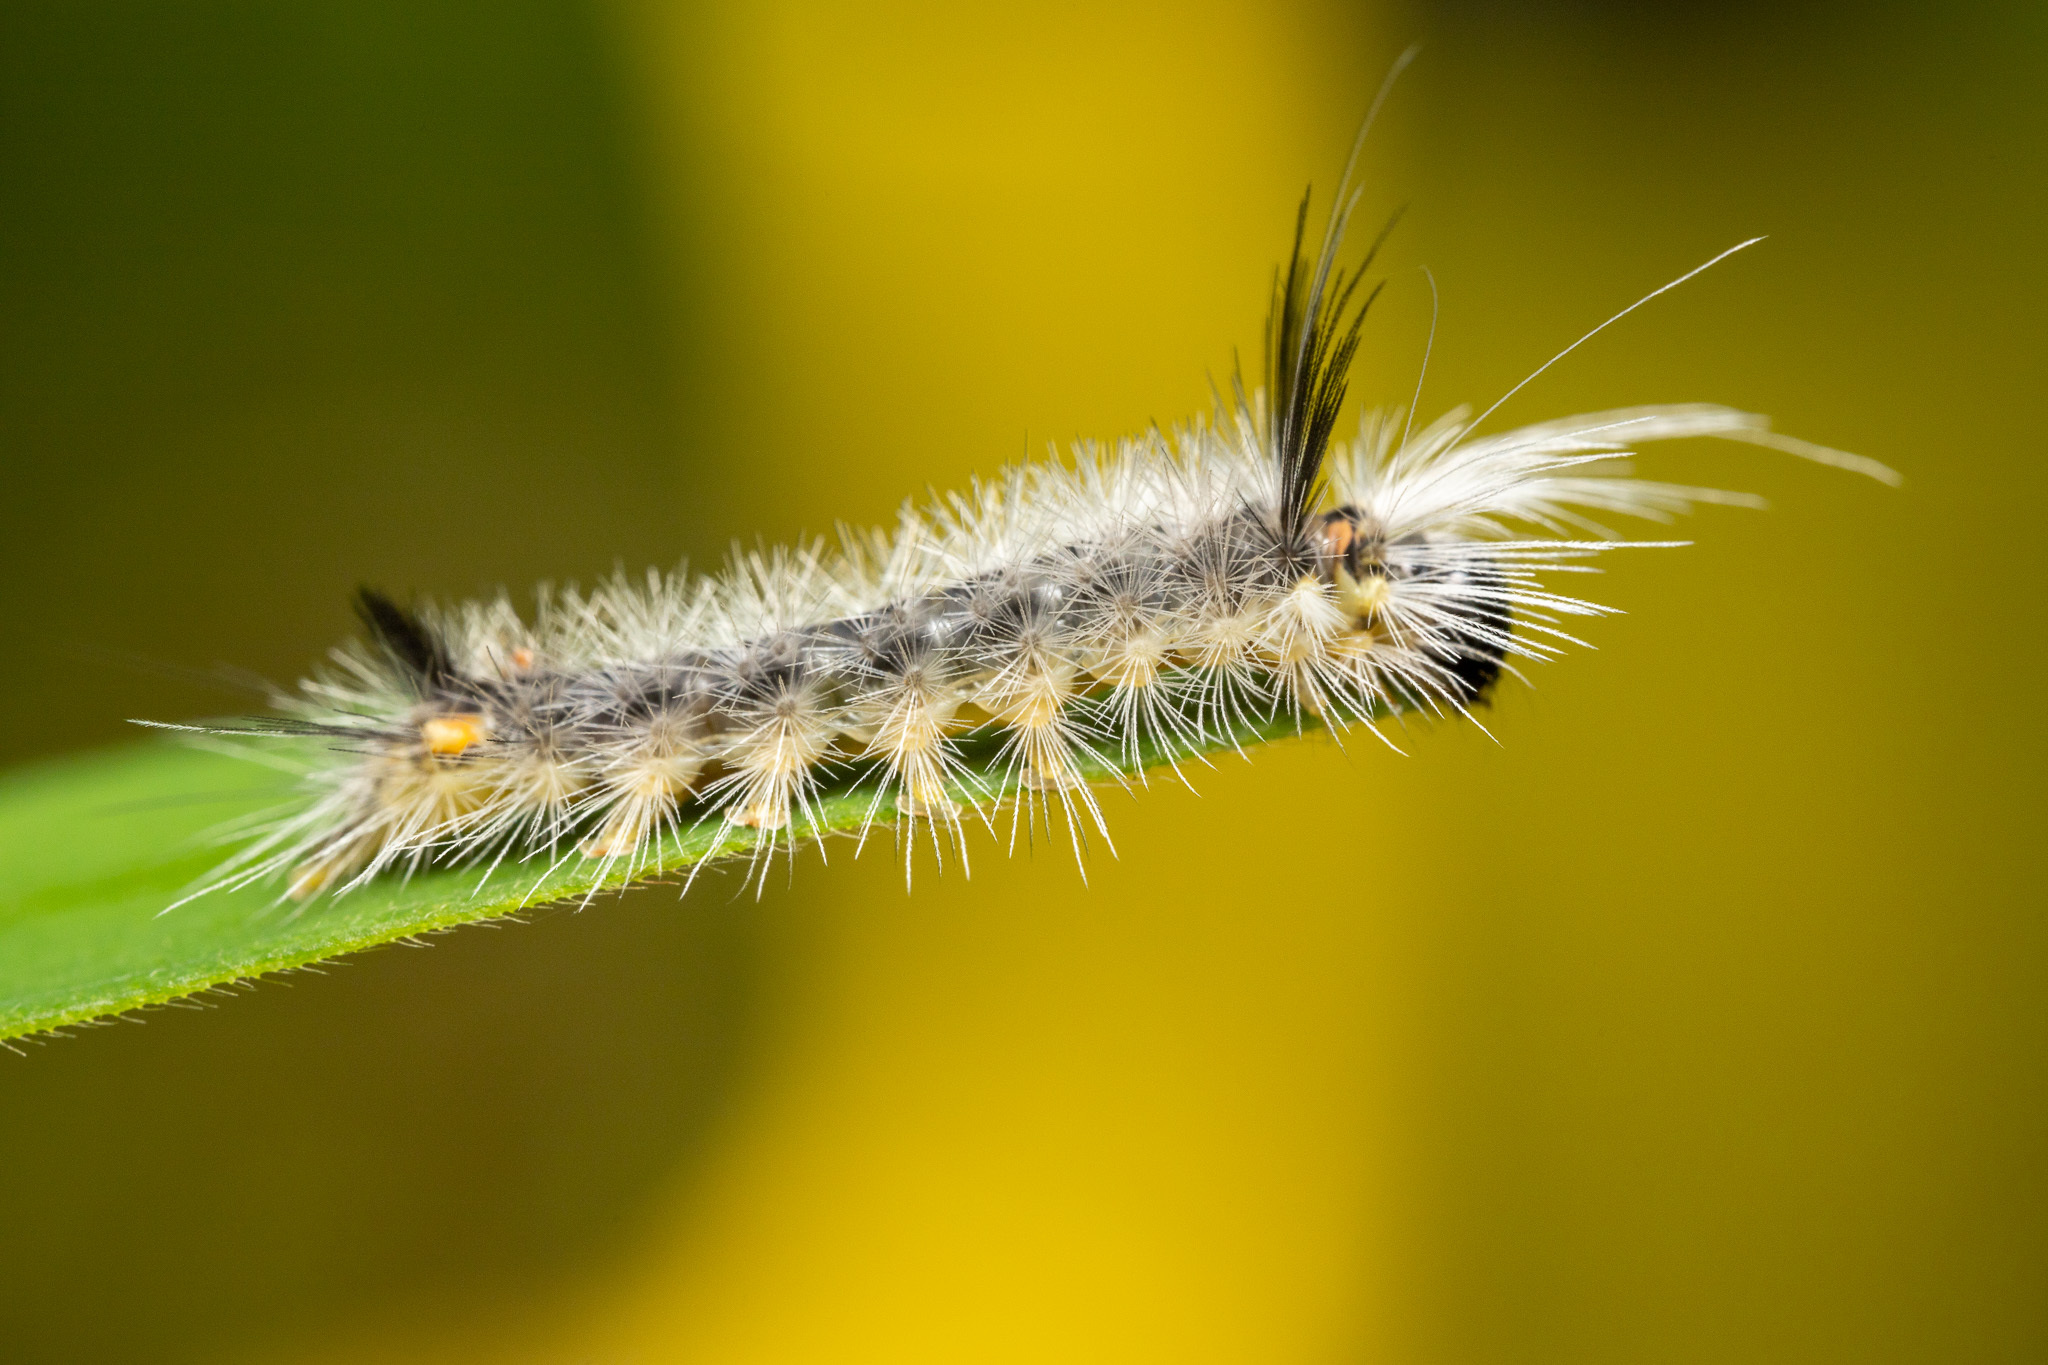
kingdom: Animalia
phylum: Arthropoda
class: Insecta
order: Lepidoptera
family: Erebidae
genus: Halysidota
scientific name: Halysidota tessellaris
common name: Banded tussock moth
